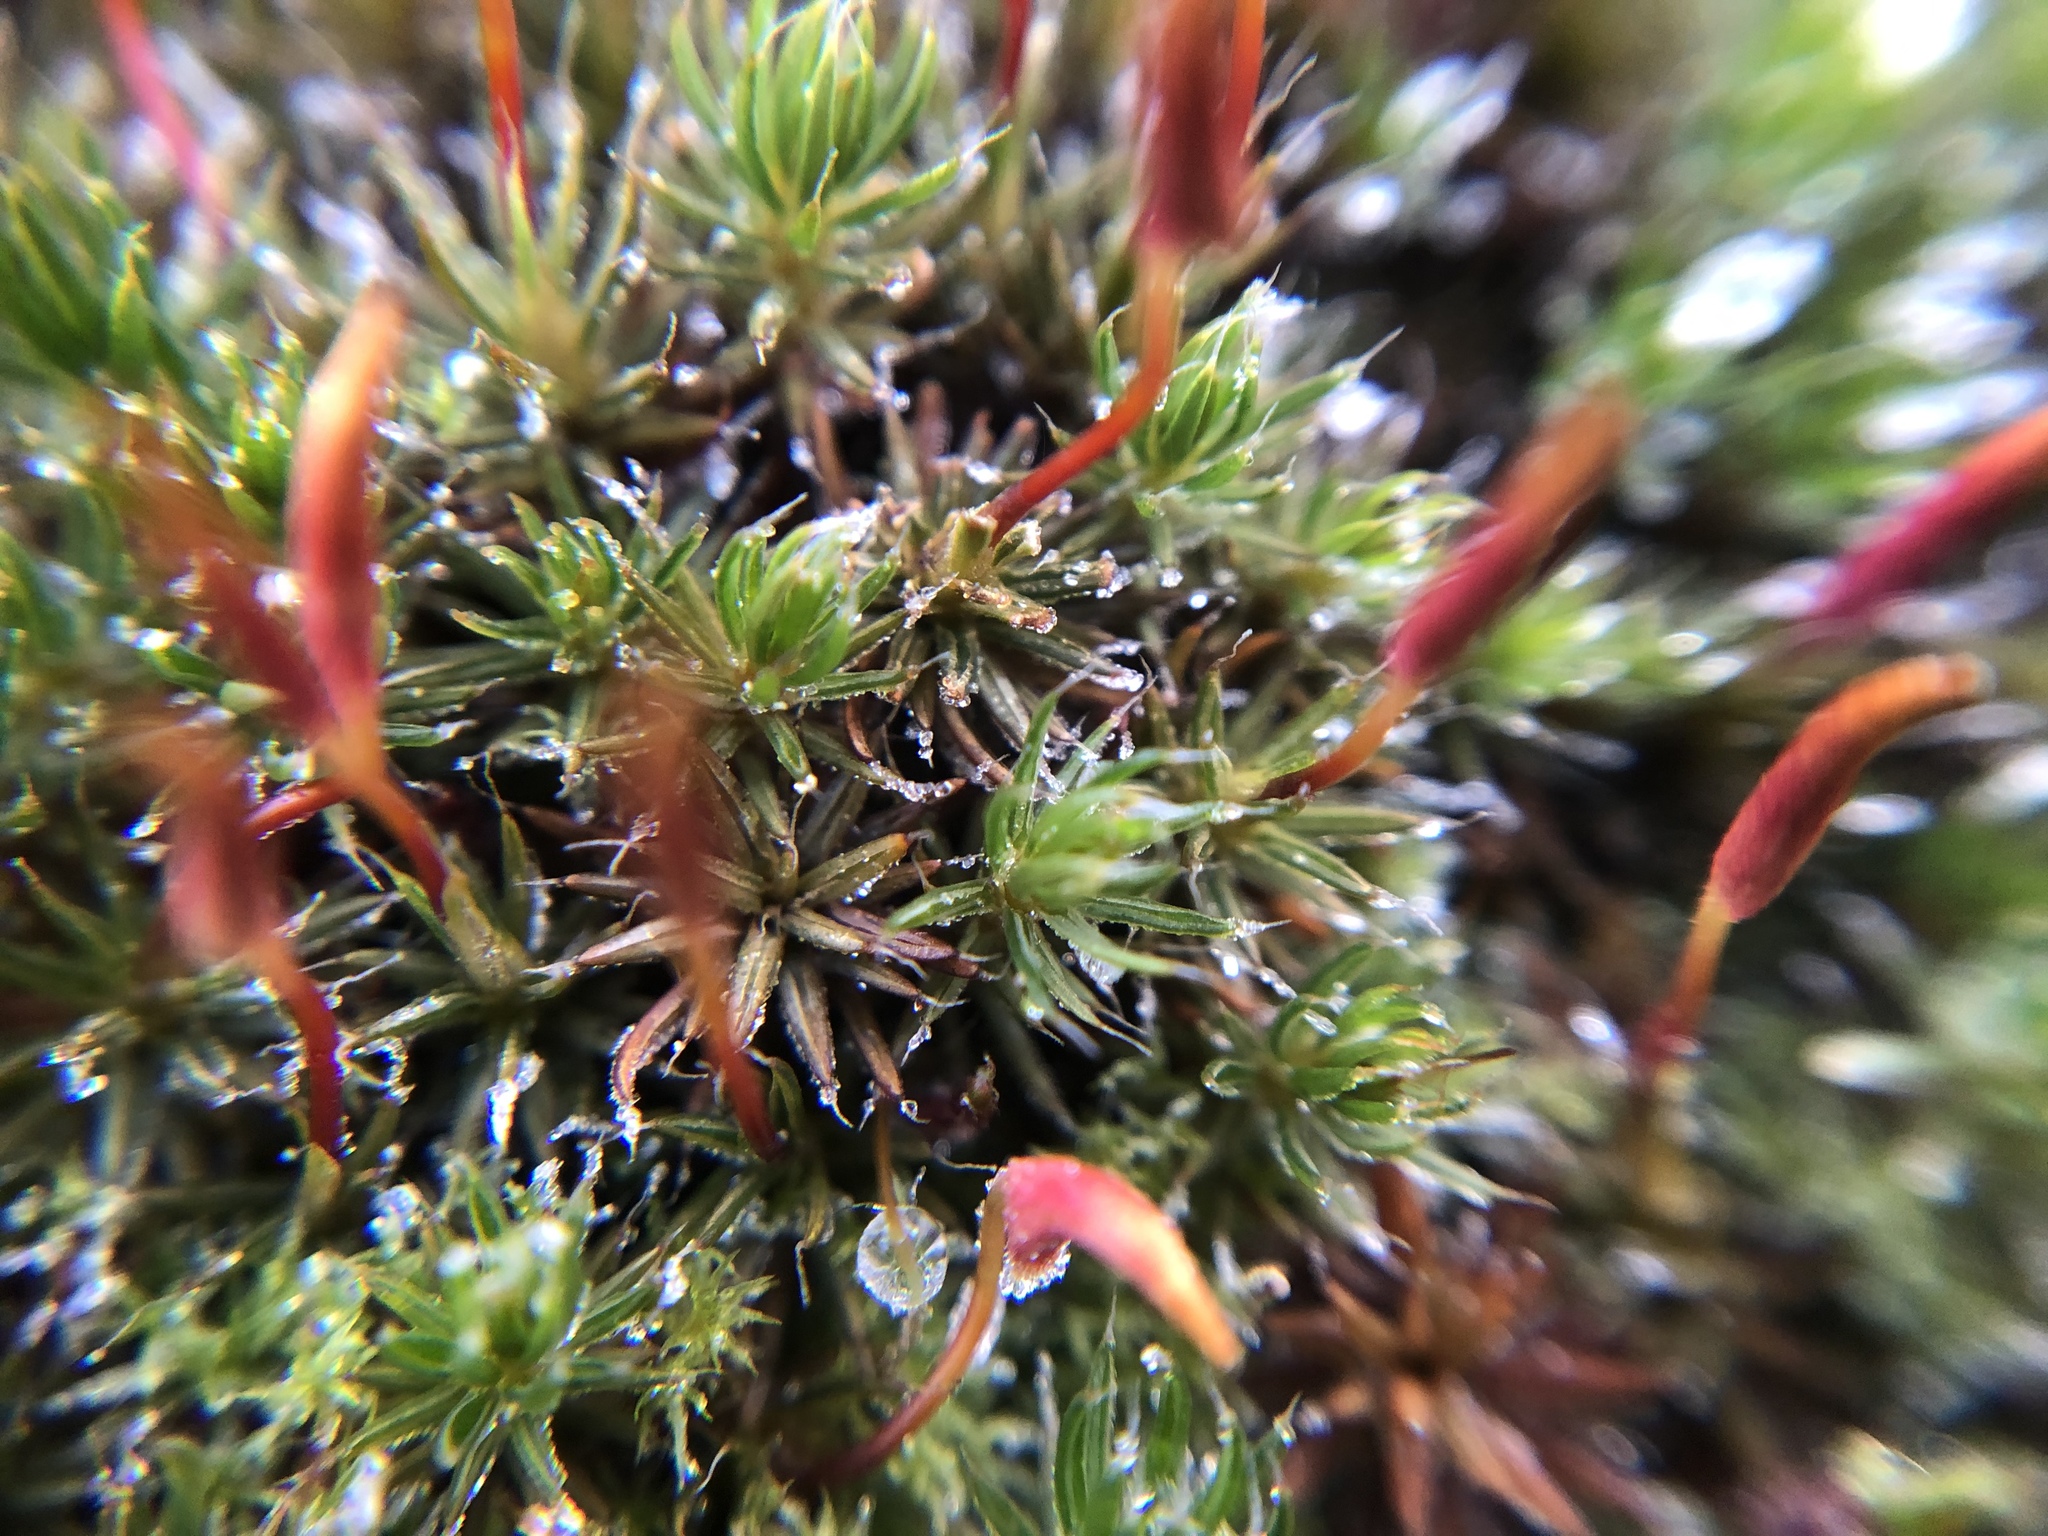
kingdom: Plantae
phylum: Bryophyta
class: Polytrichopsida
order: Polytrichales
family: Polytrichaceae
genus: Polytrichum
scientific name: Polytrichum piliferum
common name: Bristly haircap
